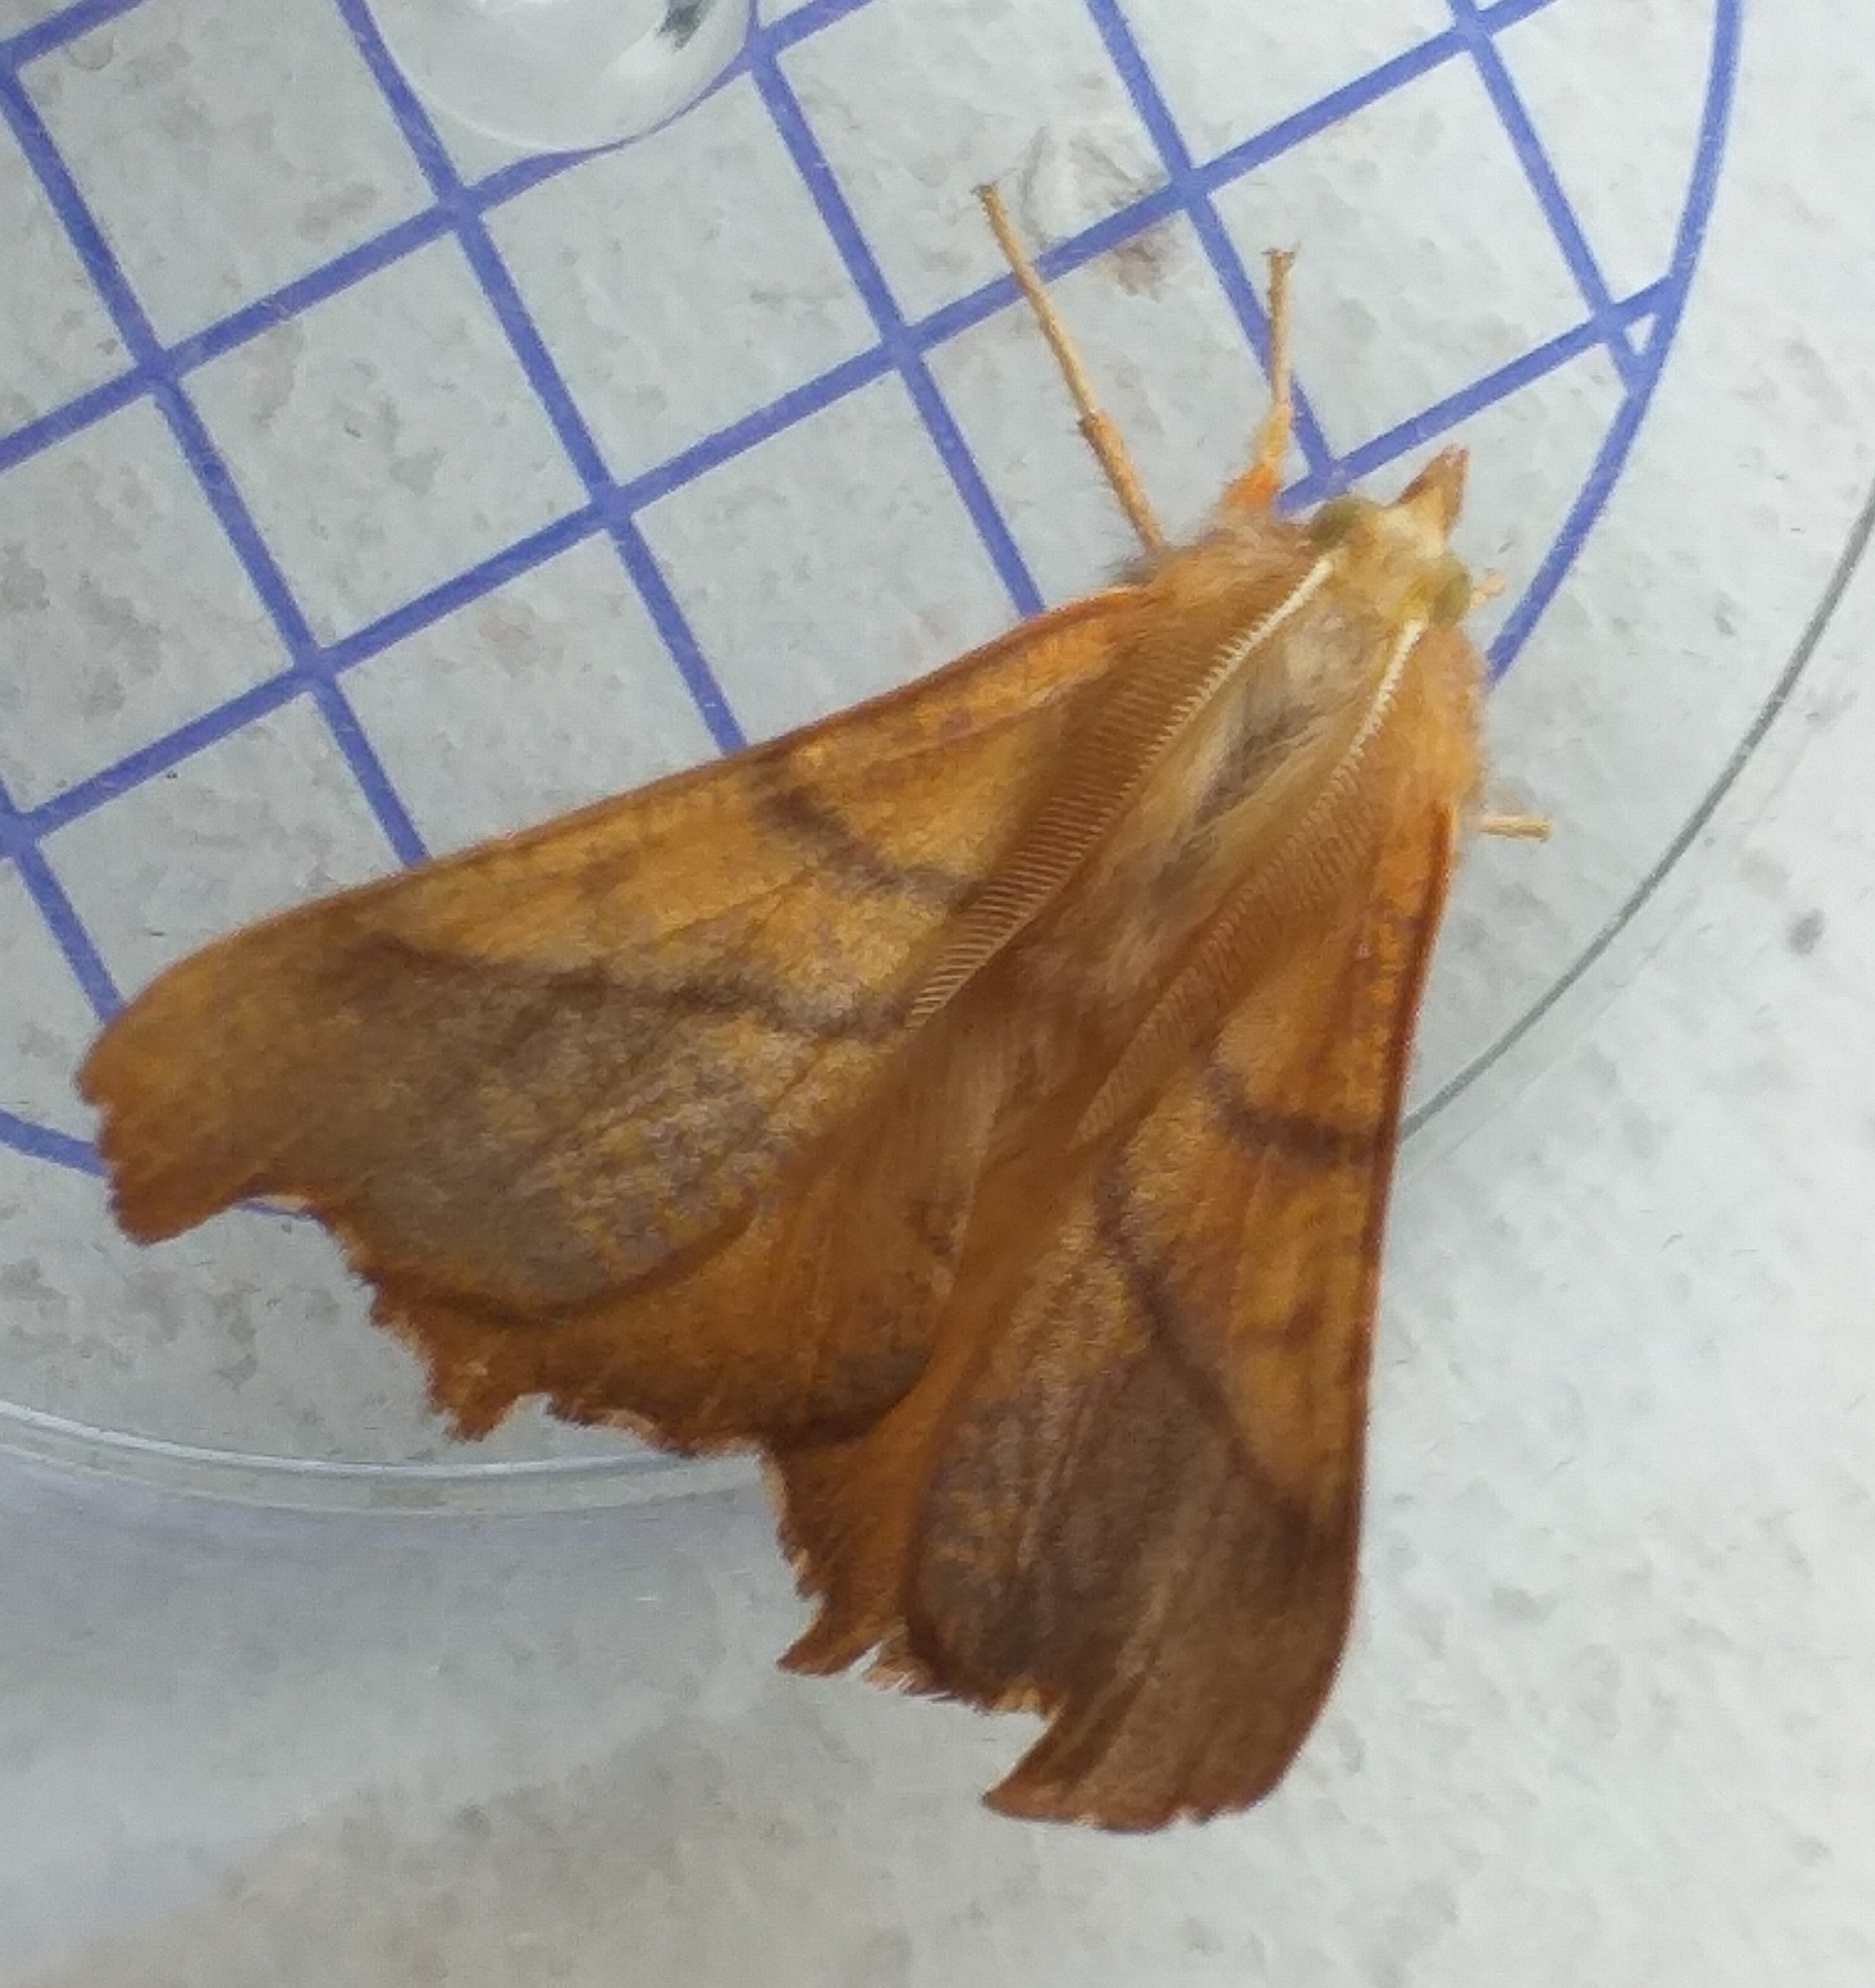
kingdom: Animalia
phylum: Arthropoda
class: Insecta
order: Lepidoptera
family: Geometridae
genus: Ennomos
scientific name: Ennomos fuscantaria
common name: Dusky thorn
